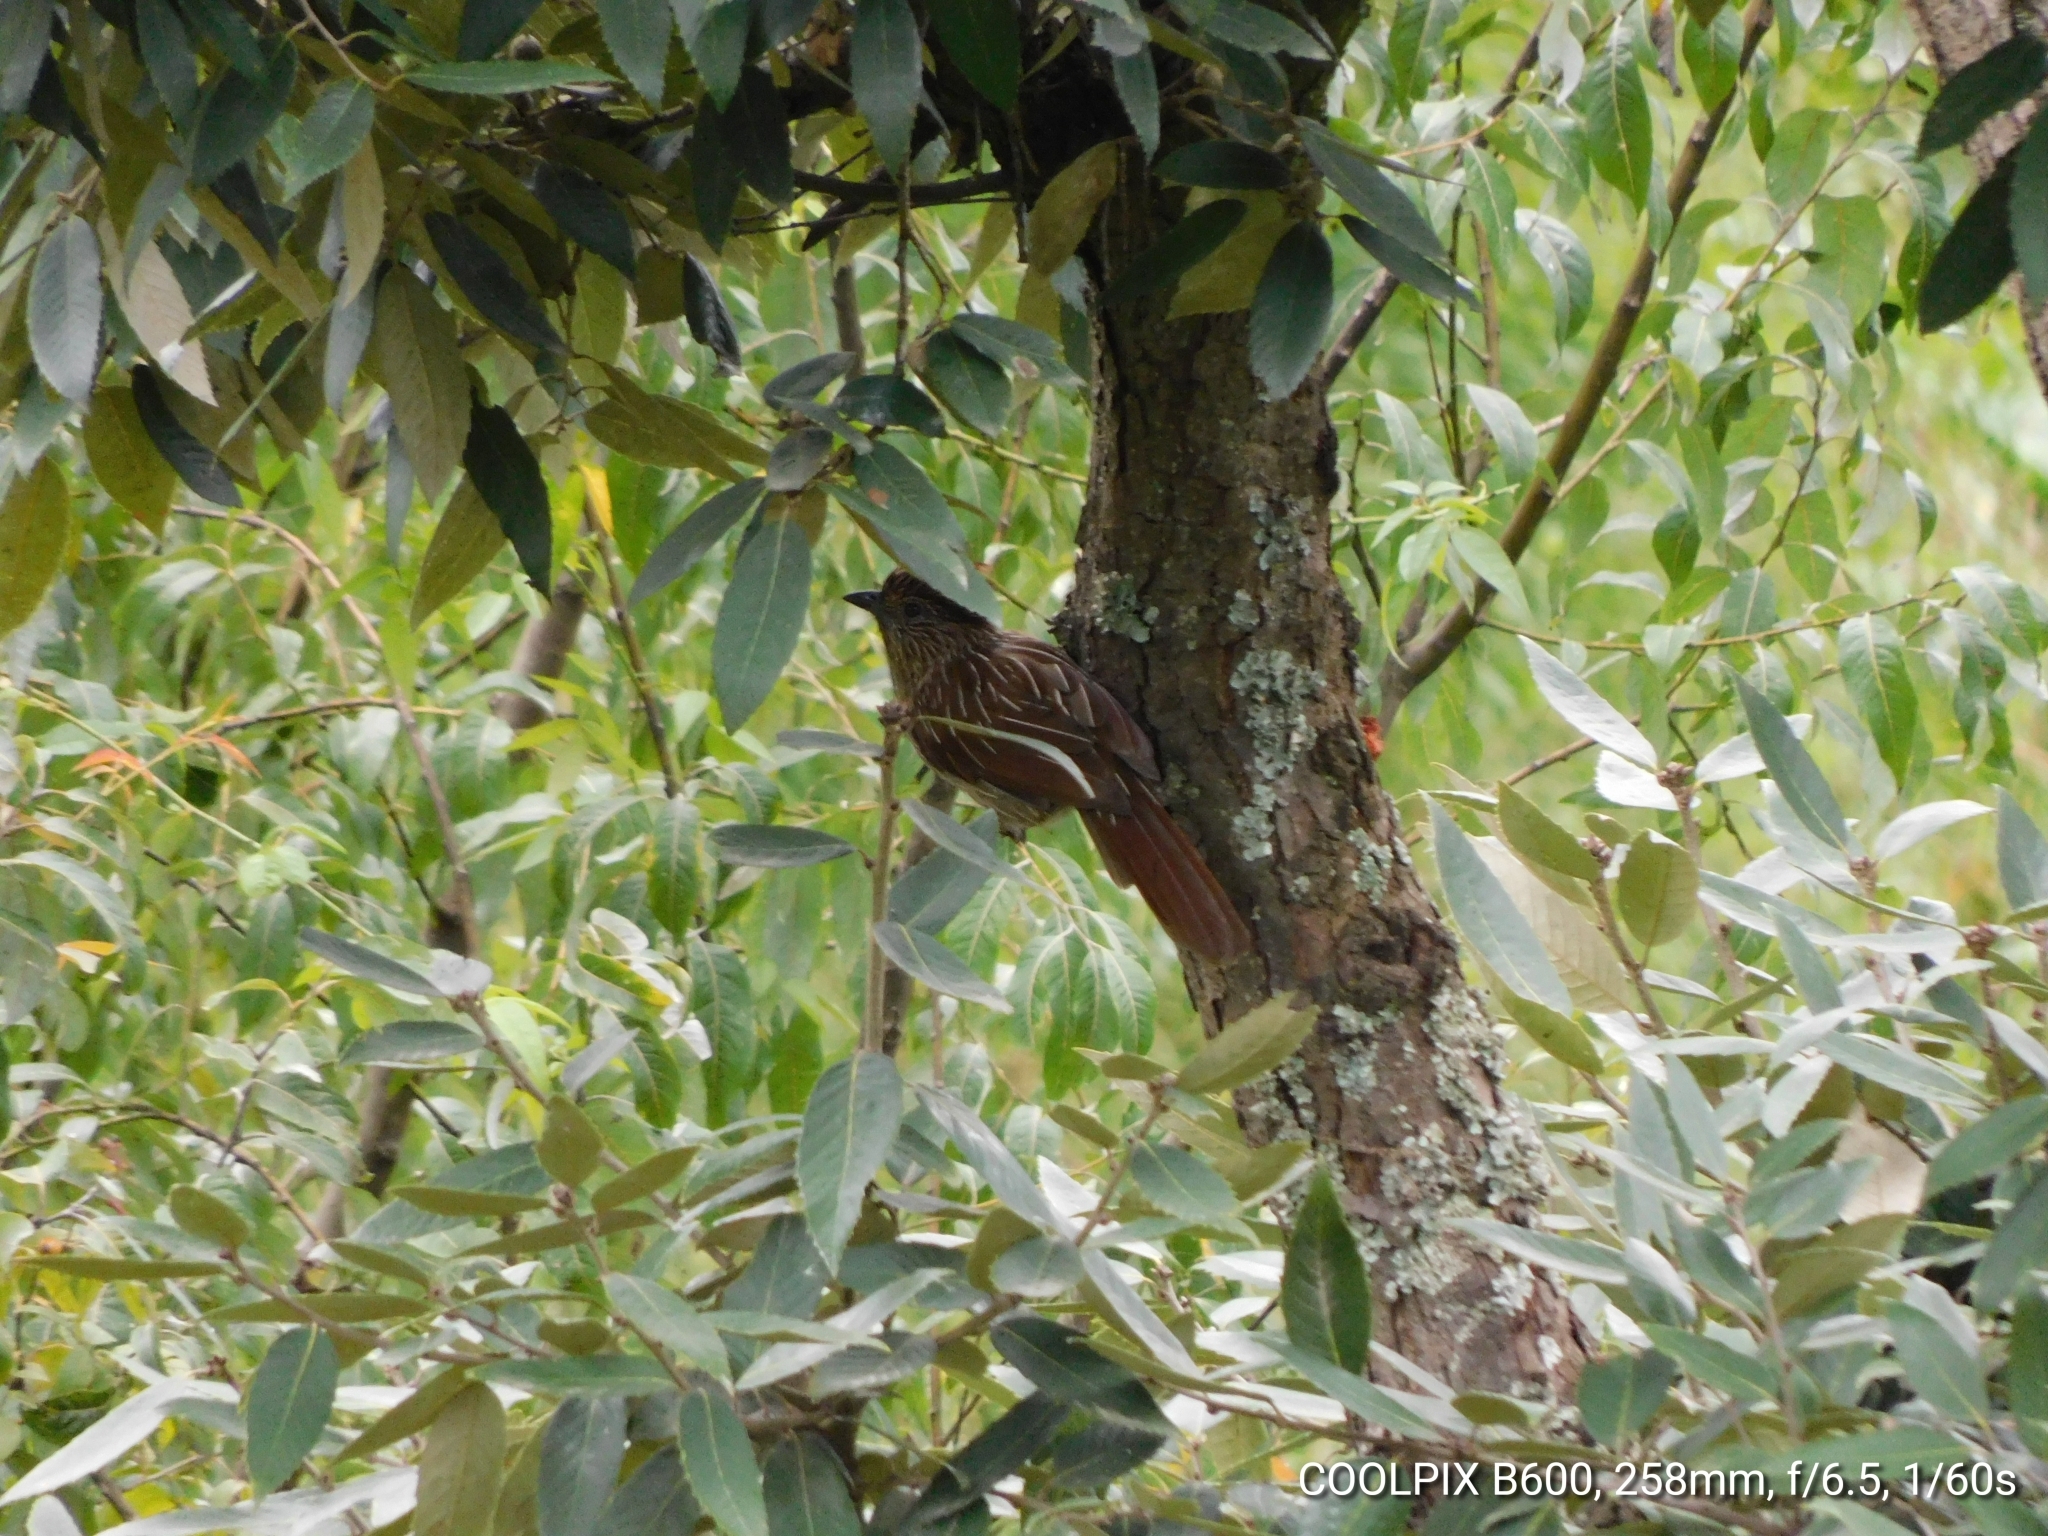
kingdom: Animalia
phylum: Chordata
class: Aves
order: Passeriformes
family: Leiothrichidae
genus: Garrulax
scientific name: Garrulax striatus
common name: Striated laughingthrush
